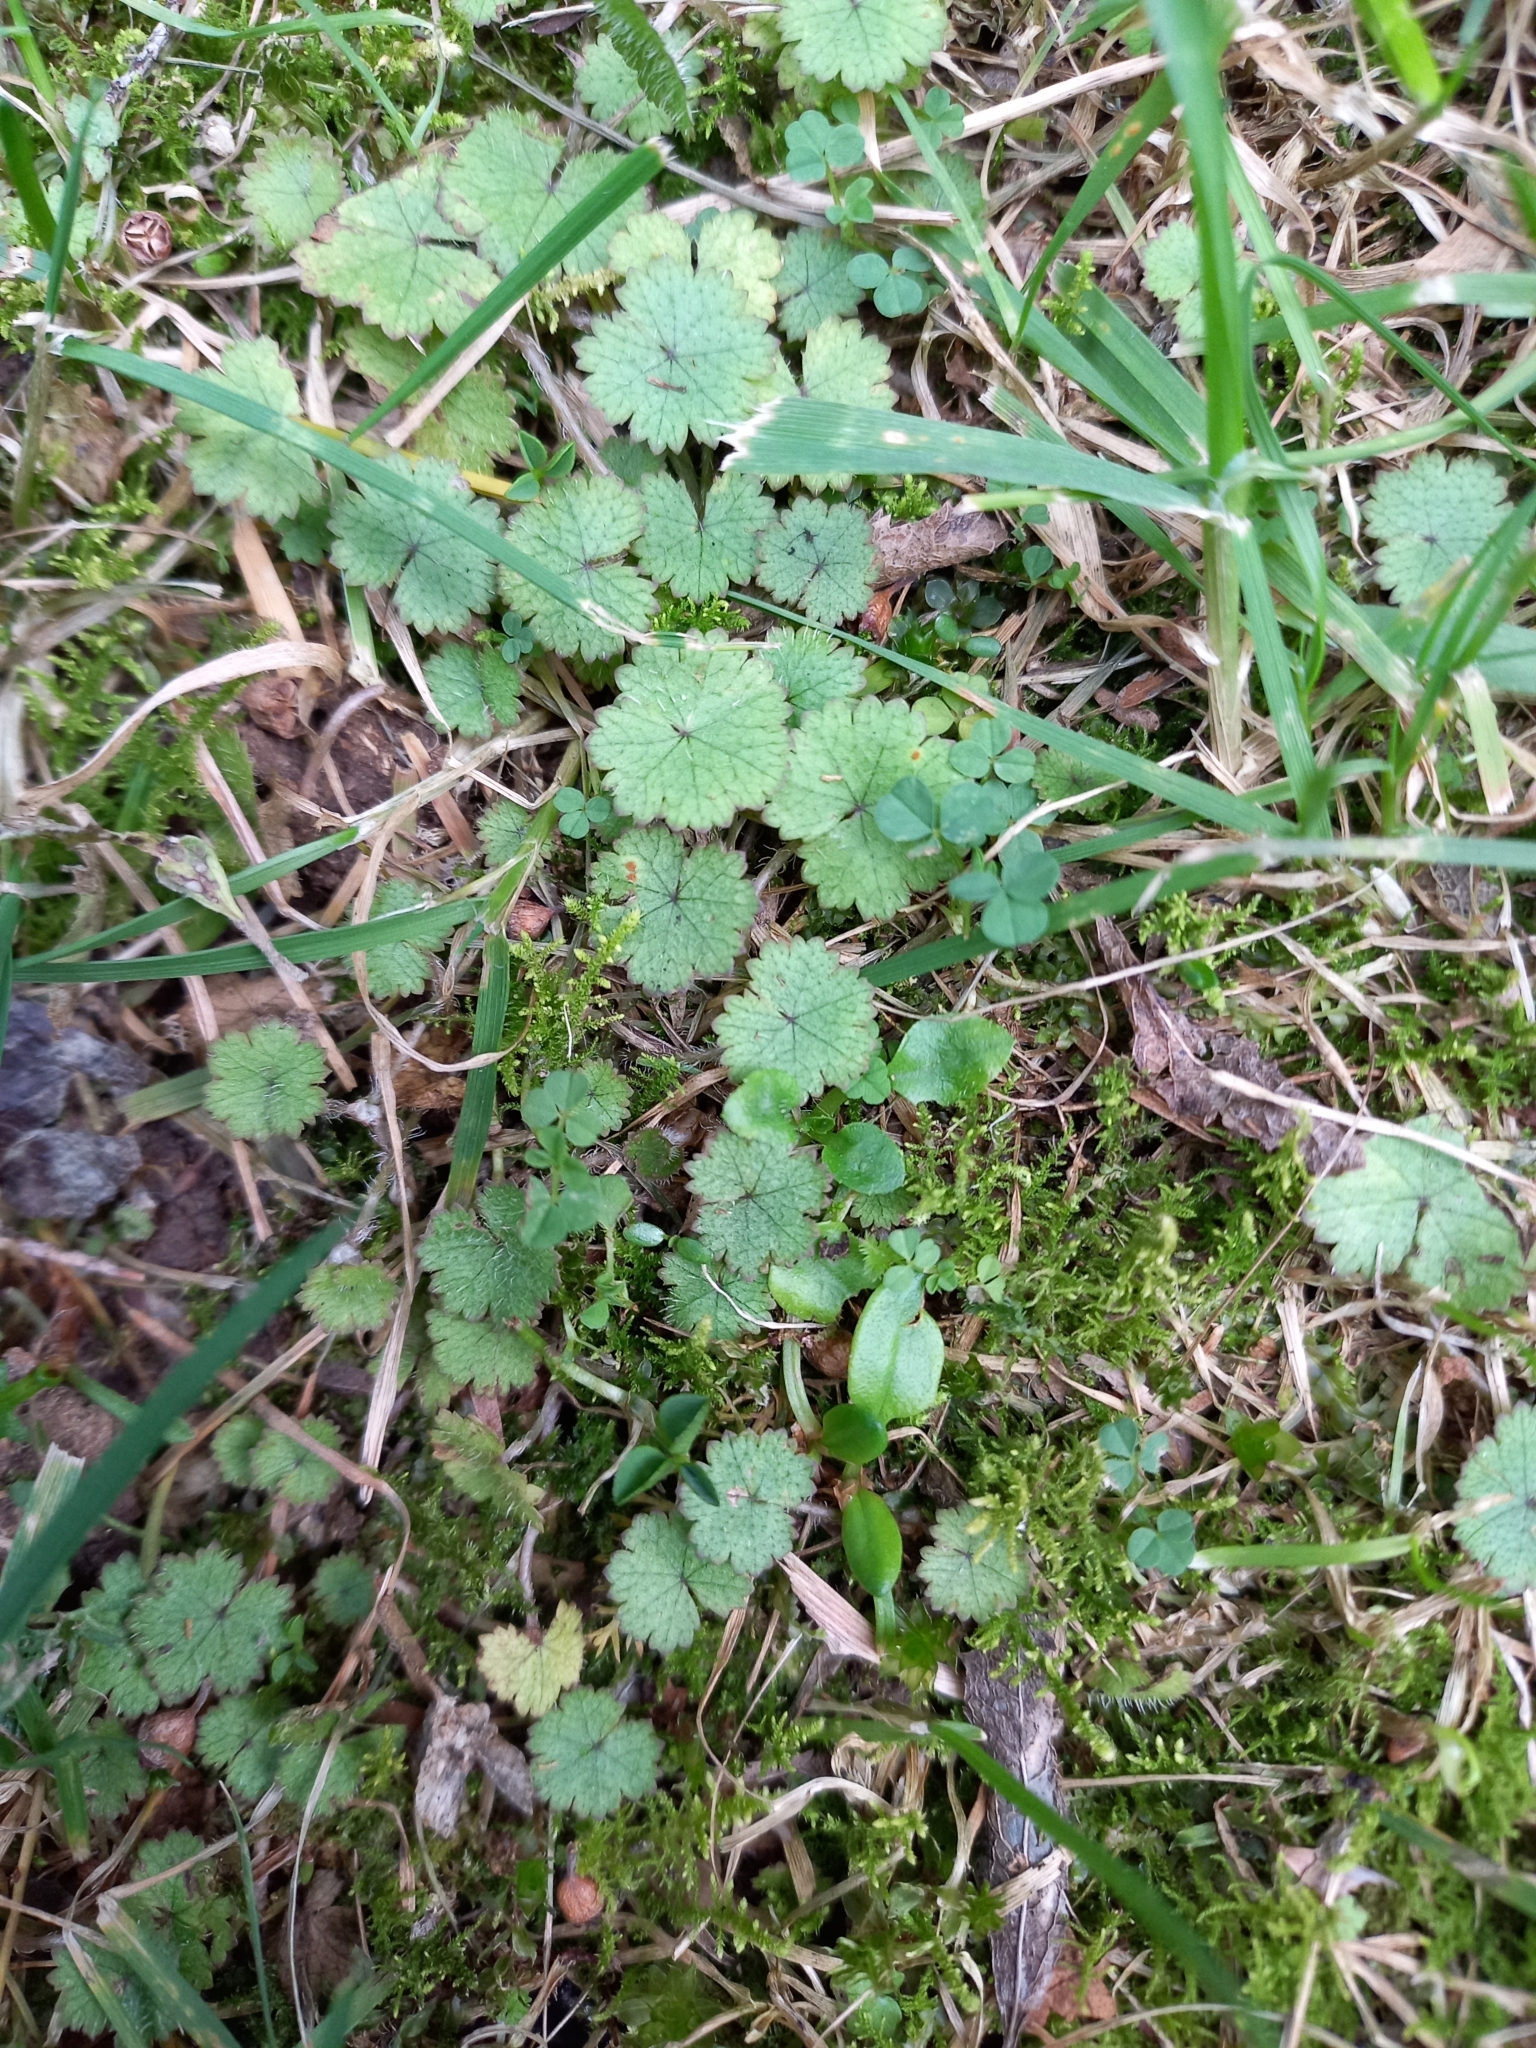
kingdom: Plantae
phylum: Tracheophyta
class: Magnoliopsida
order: Apiales
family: Araliaceae
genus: Hydrocotyle
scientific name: Hydrocotyle moschata
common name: Hairy pennywort
